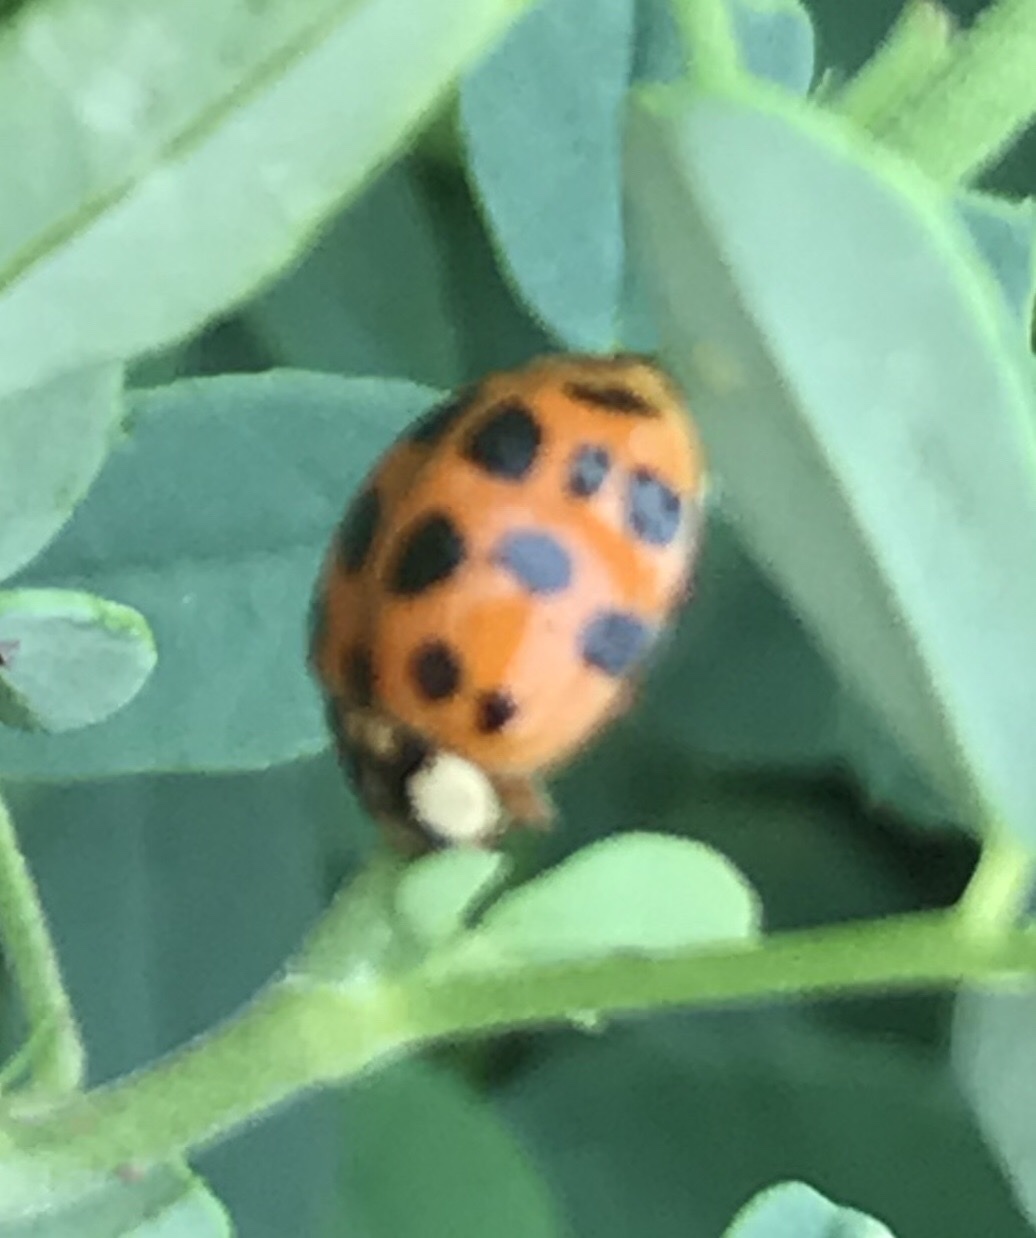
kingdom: Animalia
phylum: Arthropoda
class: Insecta
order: Coleoptera
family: Coccinellidae
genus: Harmonia
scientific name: Harmonia axyridis
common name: Harlequin ladybird
